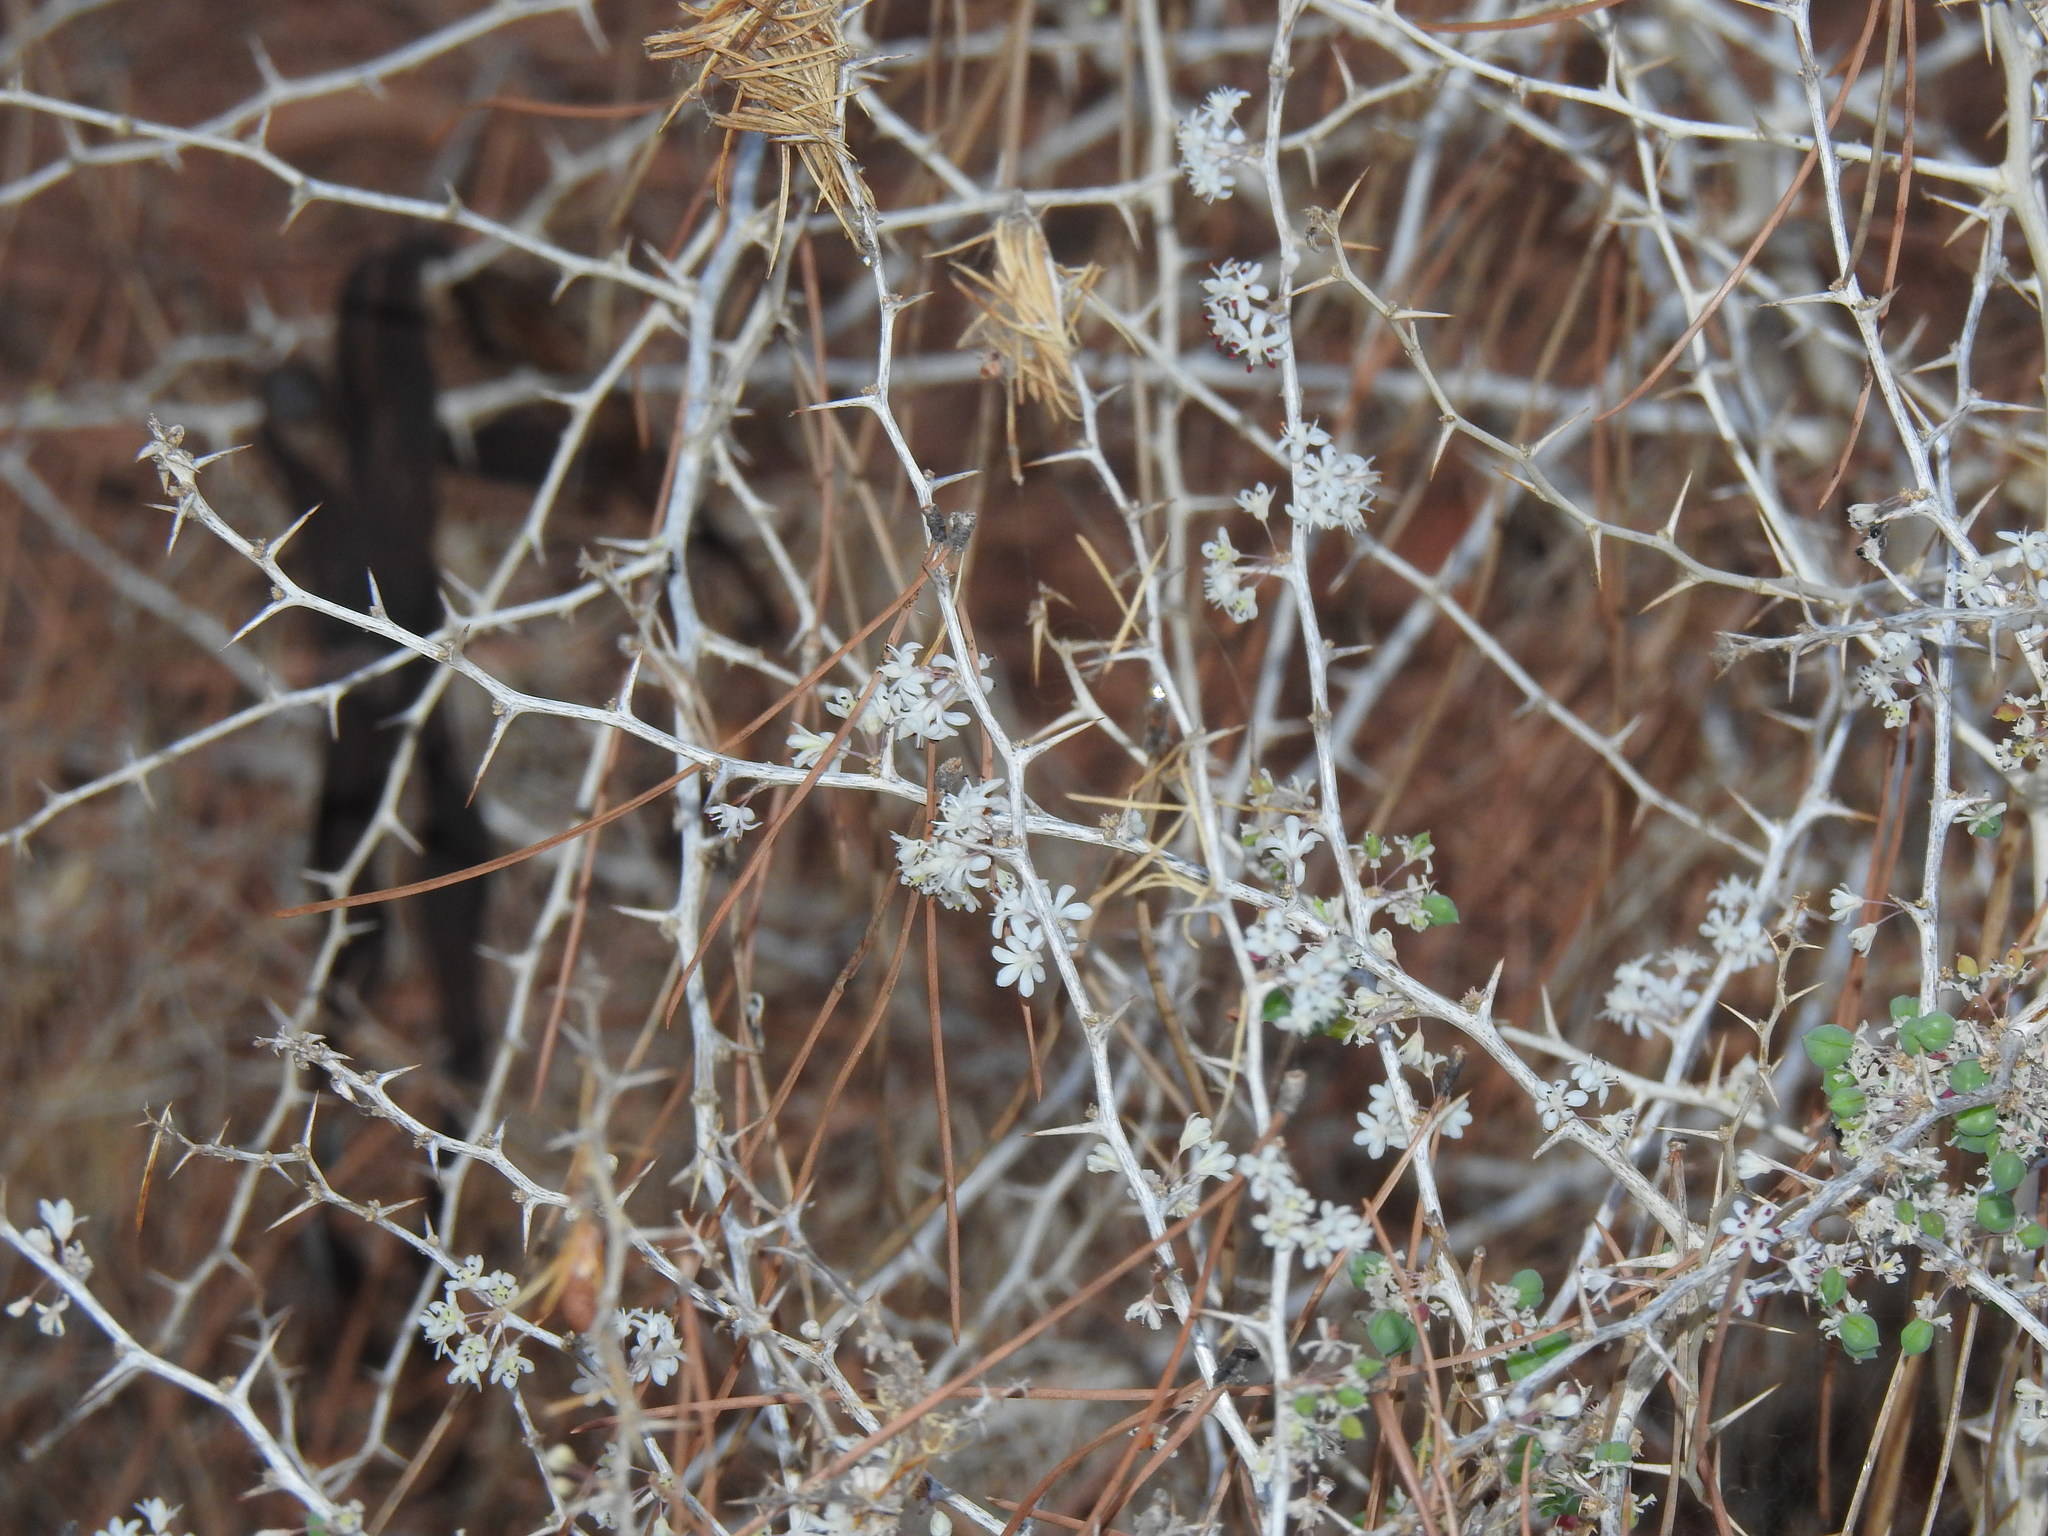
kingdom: Plantae
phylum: Tracheophyta
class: Liliopsida
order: Asparagales
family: Asparagaceae
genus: Asparagus
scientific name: Asparagus albus
